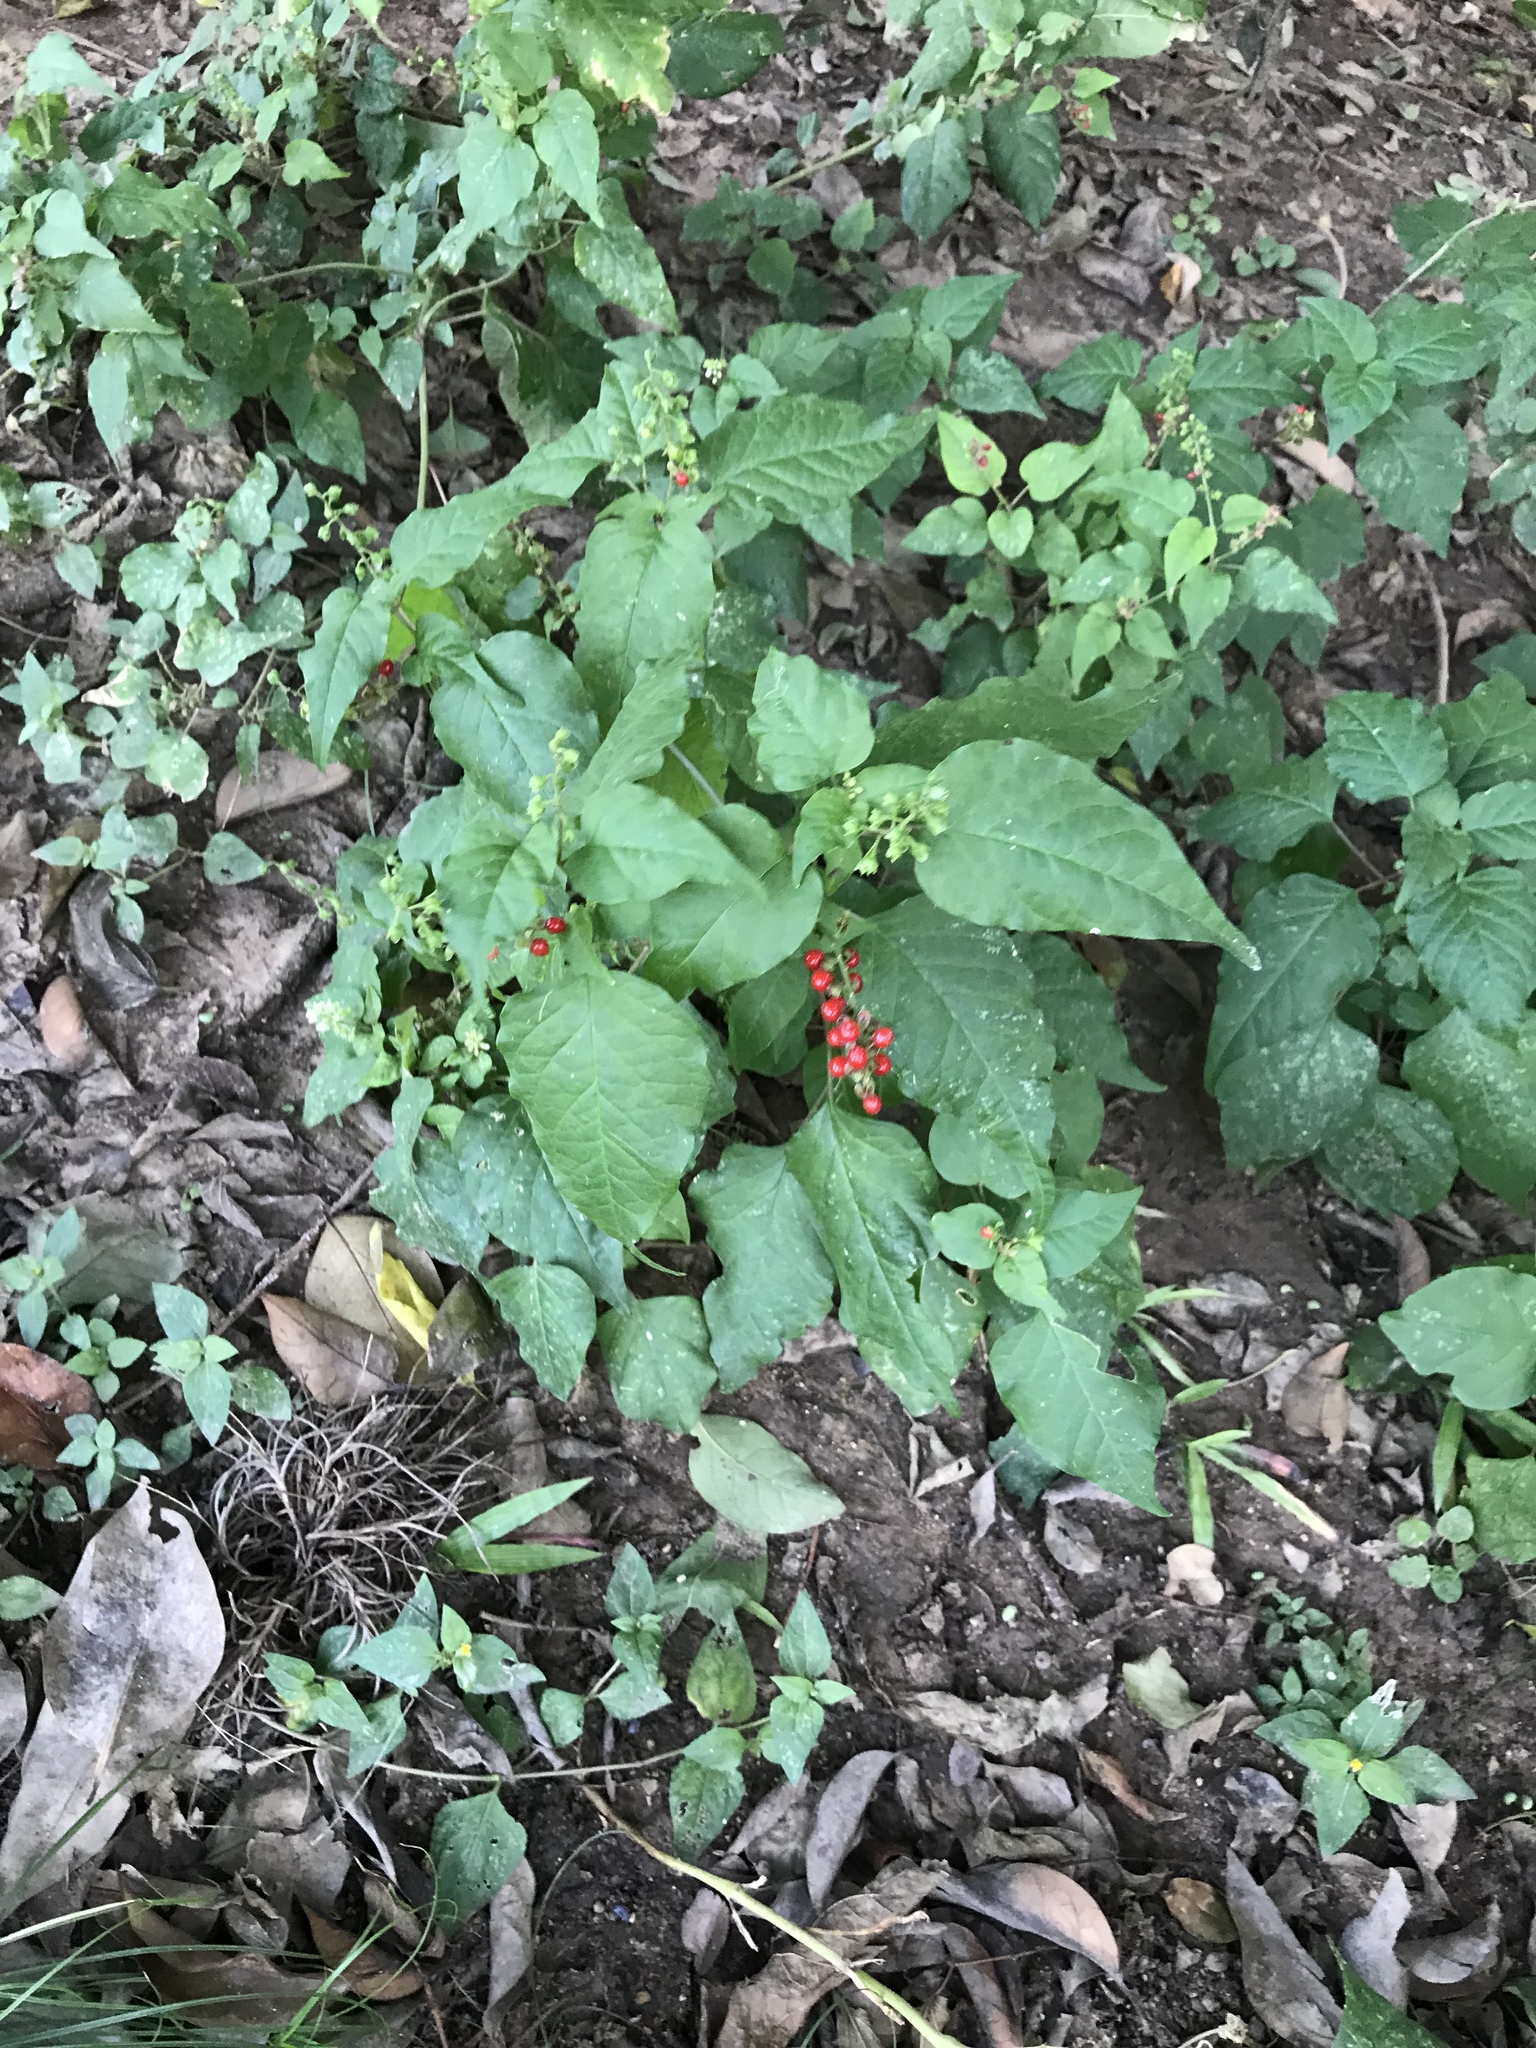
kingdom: Plantae
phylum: Tracheophyta
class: Magnoliopsida
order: Caryophyllales
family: Phytolaccaceae
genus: Rivina
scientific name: Rivina humilis
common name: Rougeplant
